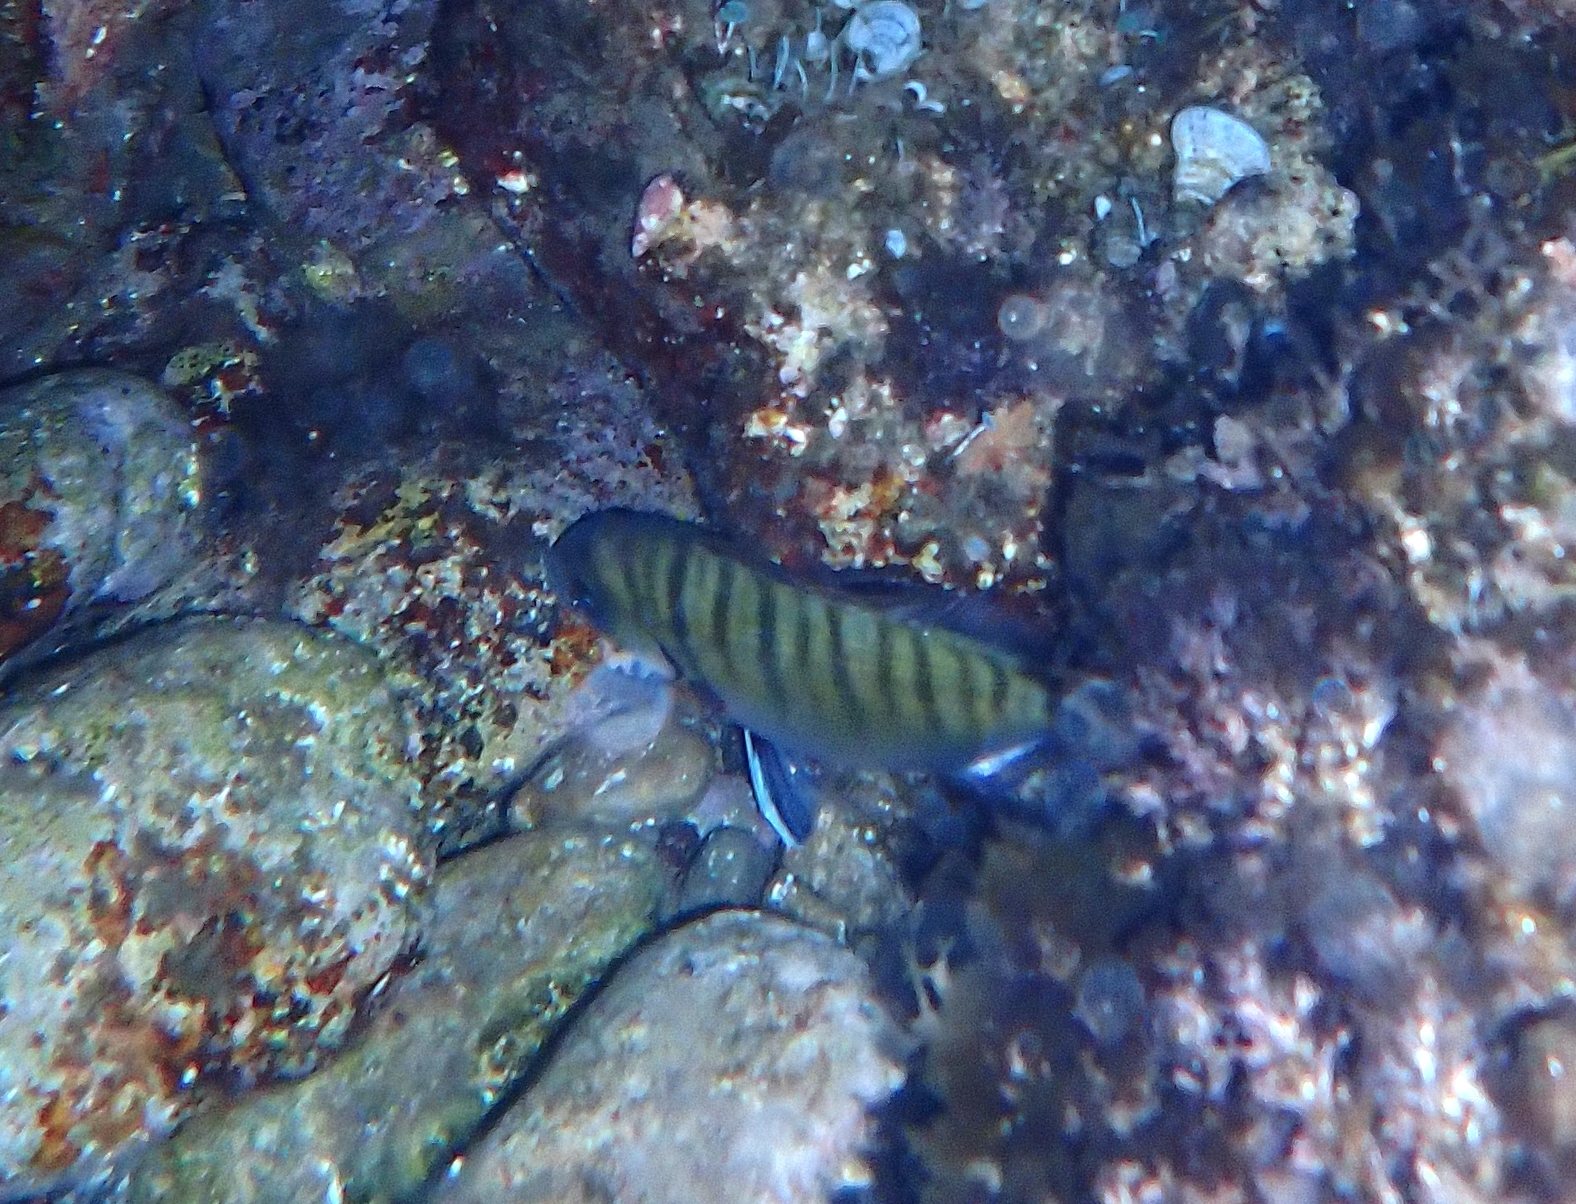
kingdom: Animalia
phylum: Chordata
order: Perciformes
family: Sparidae
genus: Diplodus
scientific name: Diplodus sargus
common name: White seabream
